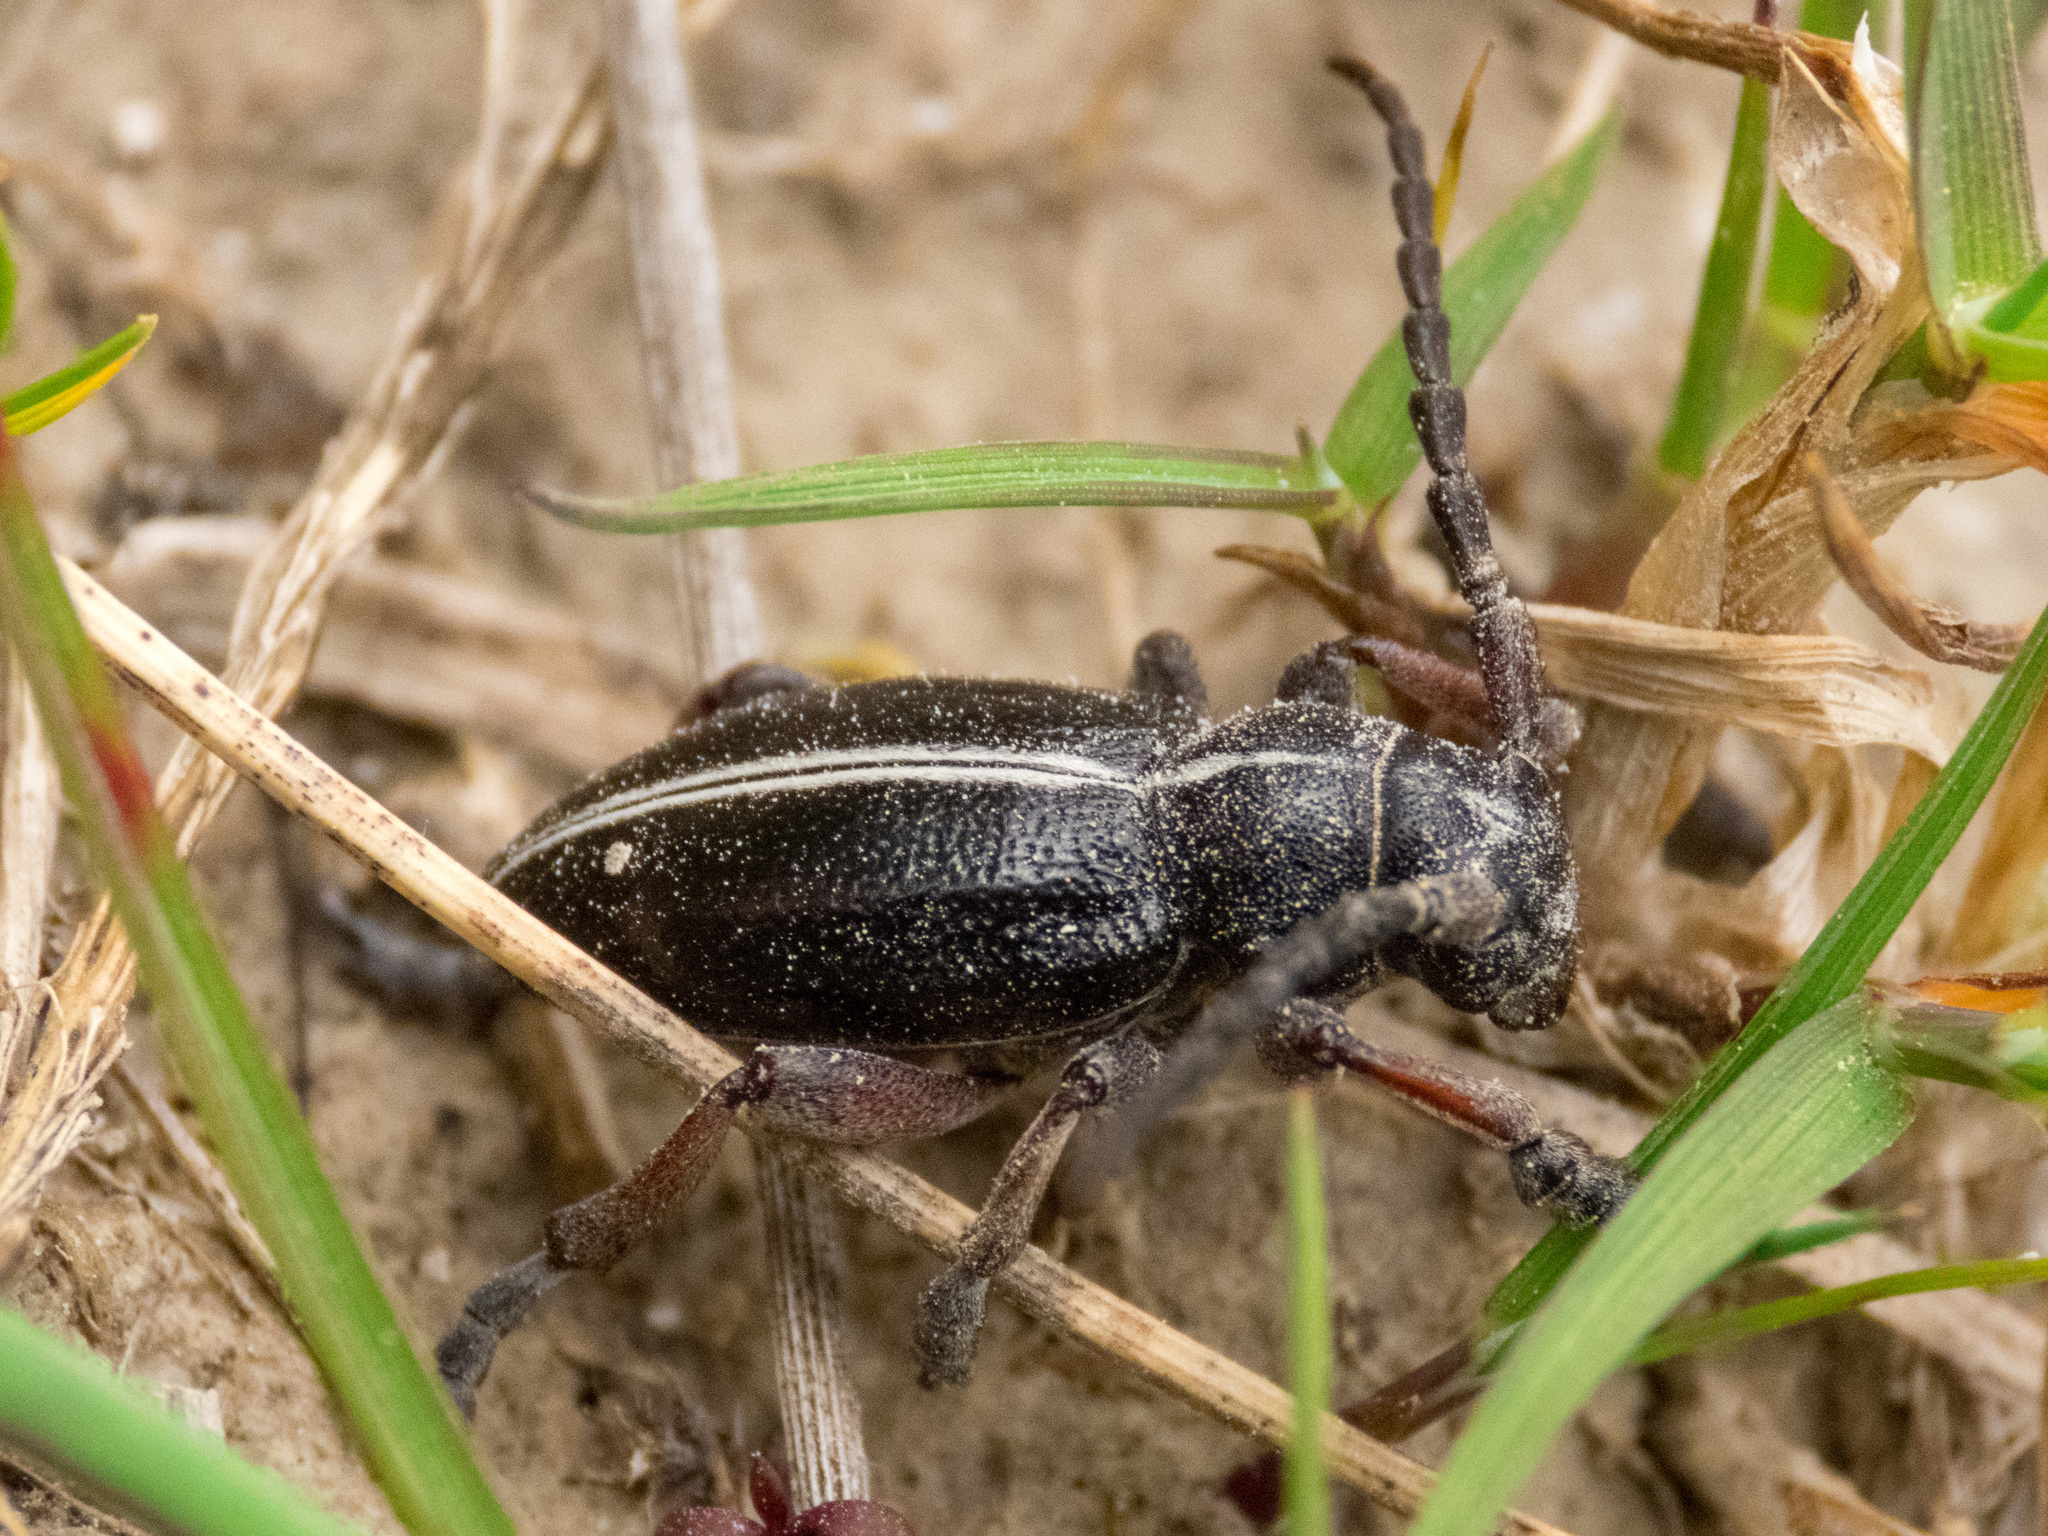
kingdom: Animalia
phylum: Arthropoda
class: Insecta
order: Coleoptera
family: Cerambycidae
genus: Dorcadion
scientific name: Dorcadion etruscum
